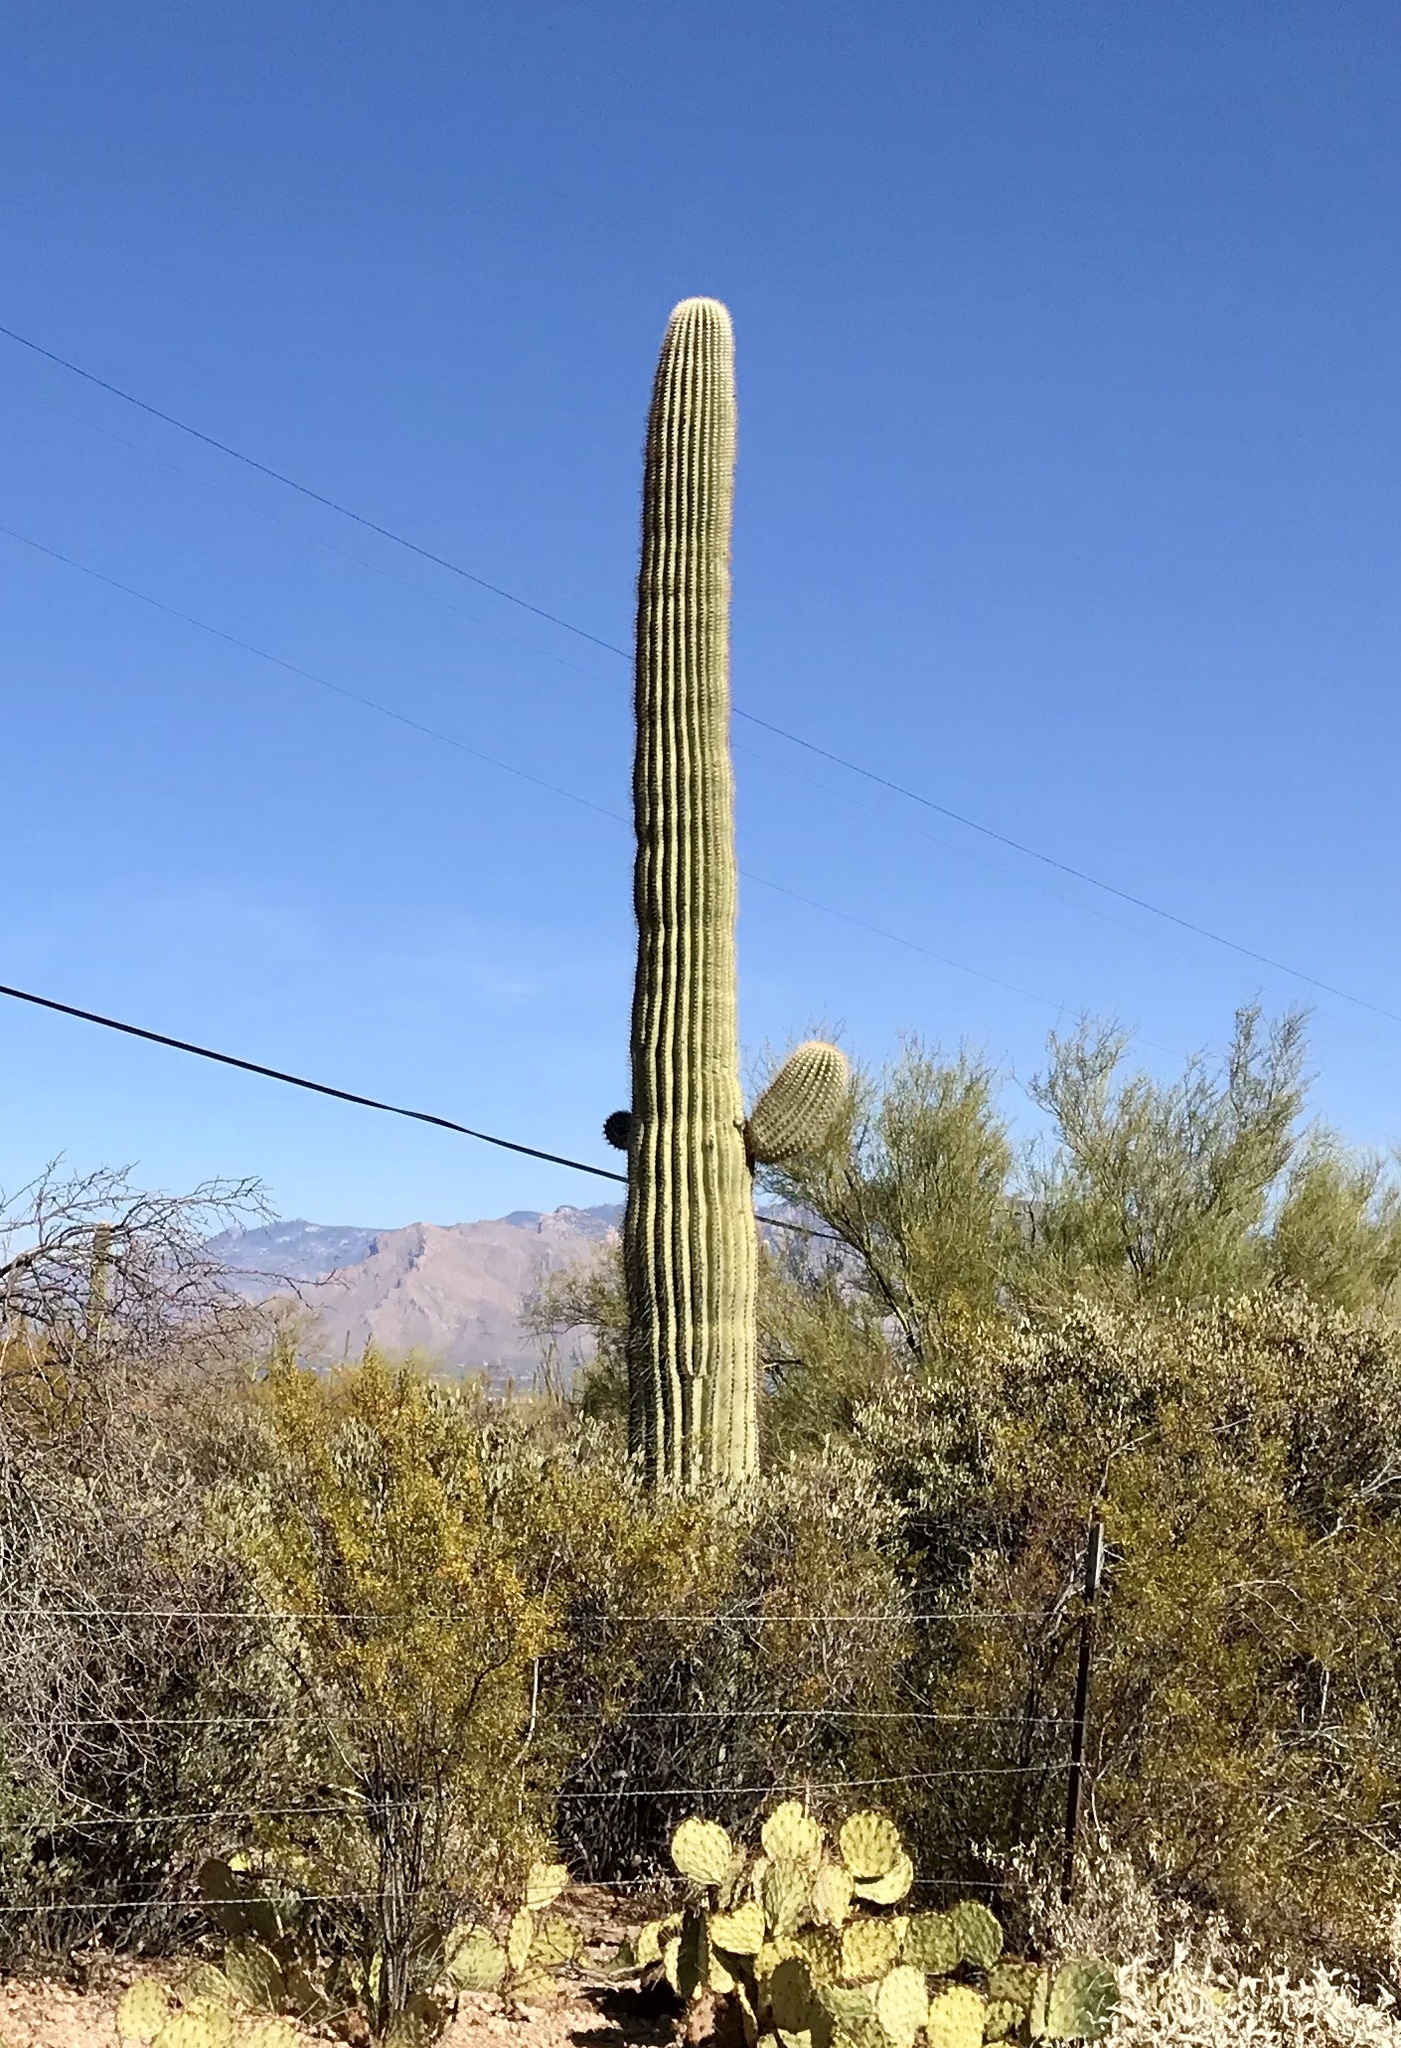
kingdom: Plantae
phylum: Tracheophyta
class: Magnoliopsida
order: Caryophyllales
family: Cactaceae
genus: Carnegiea
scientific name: Carnegiea gigantea
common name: Saguaro
